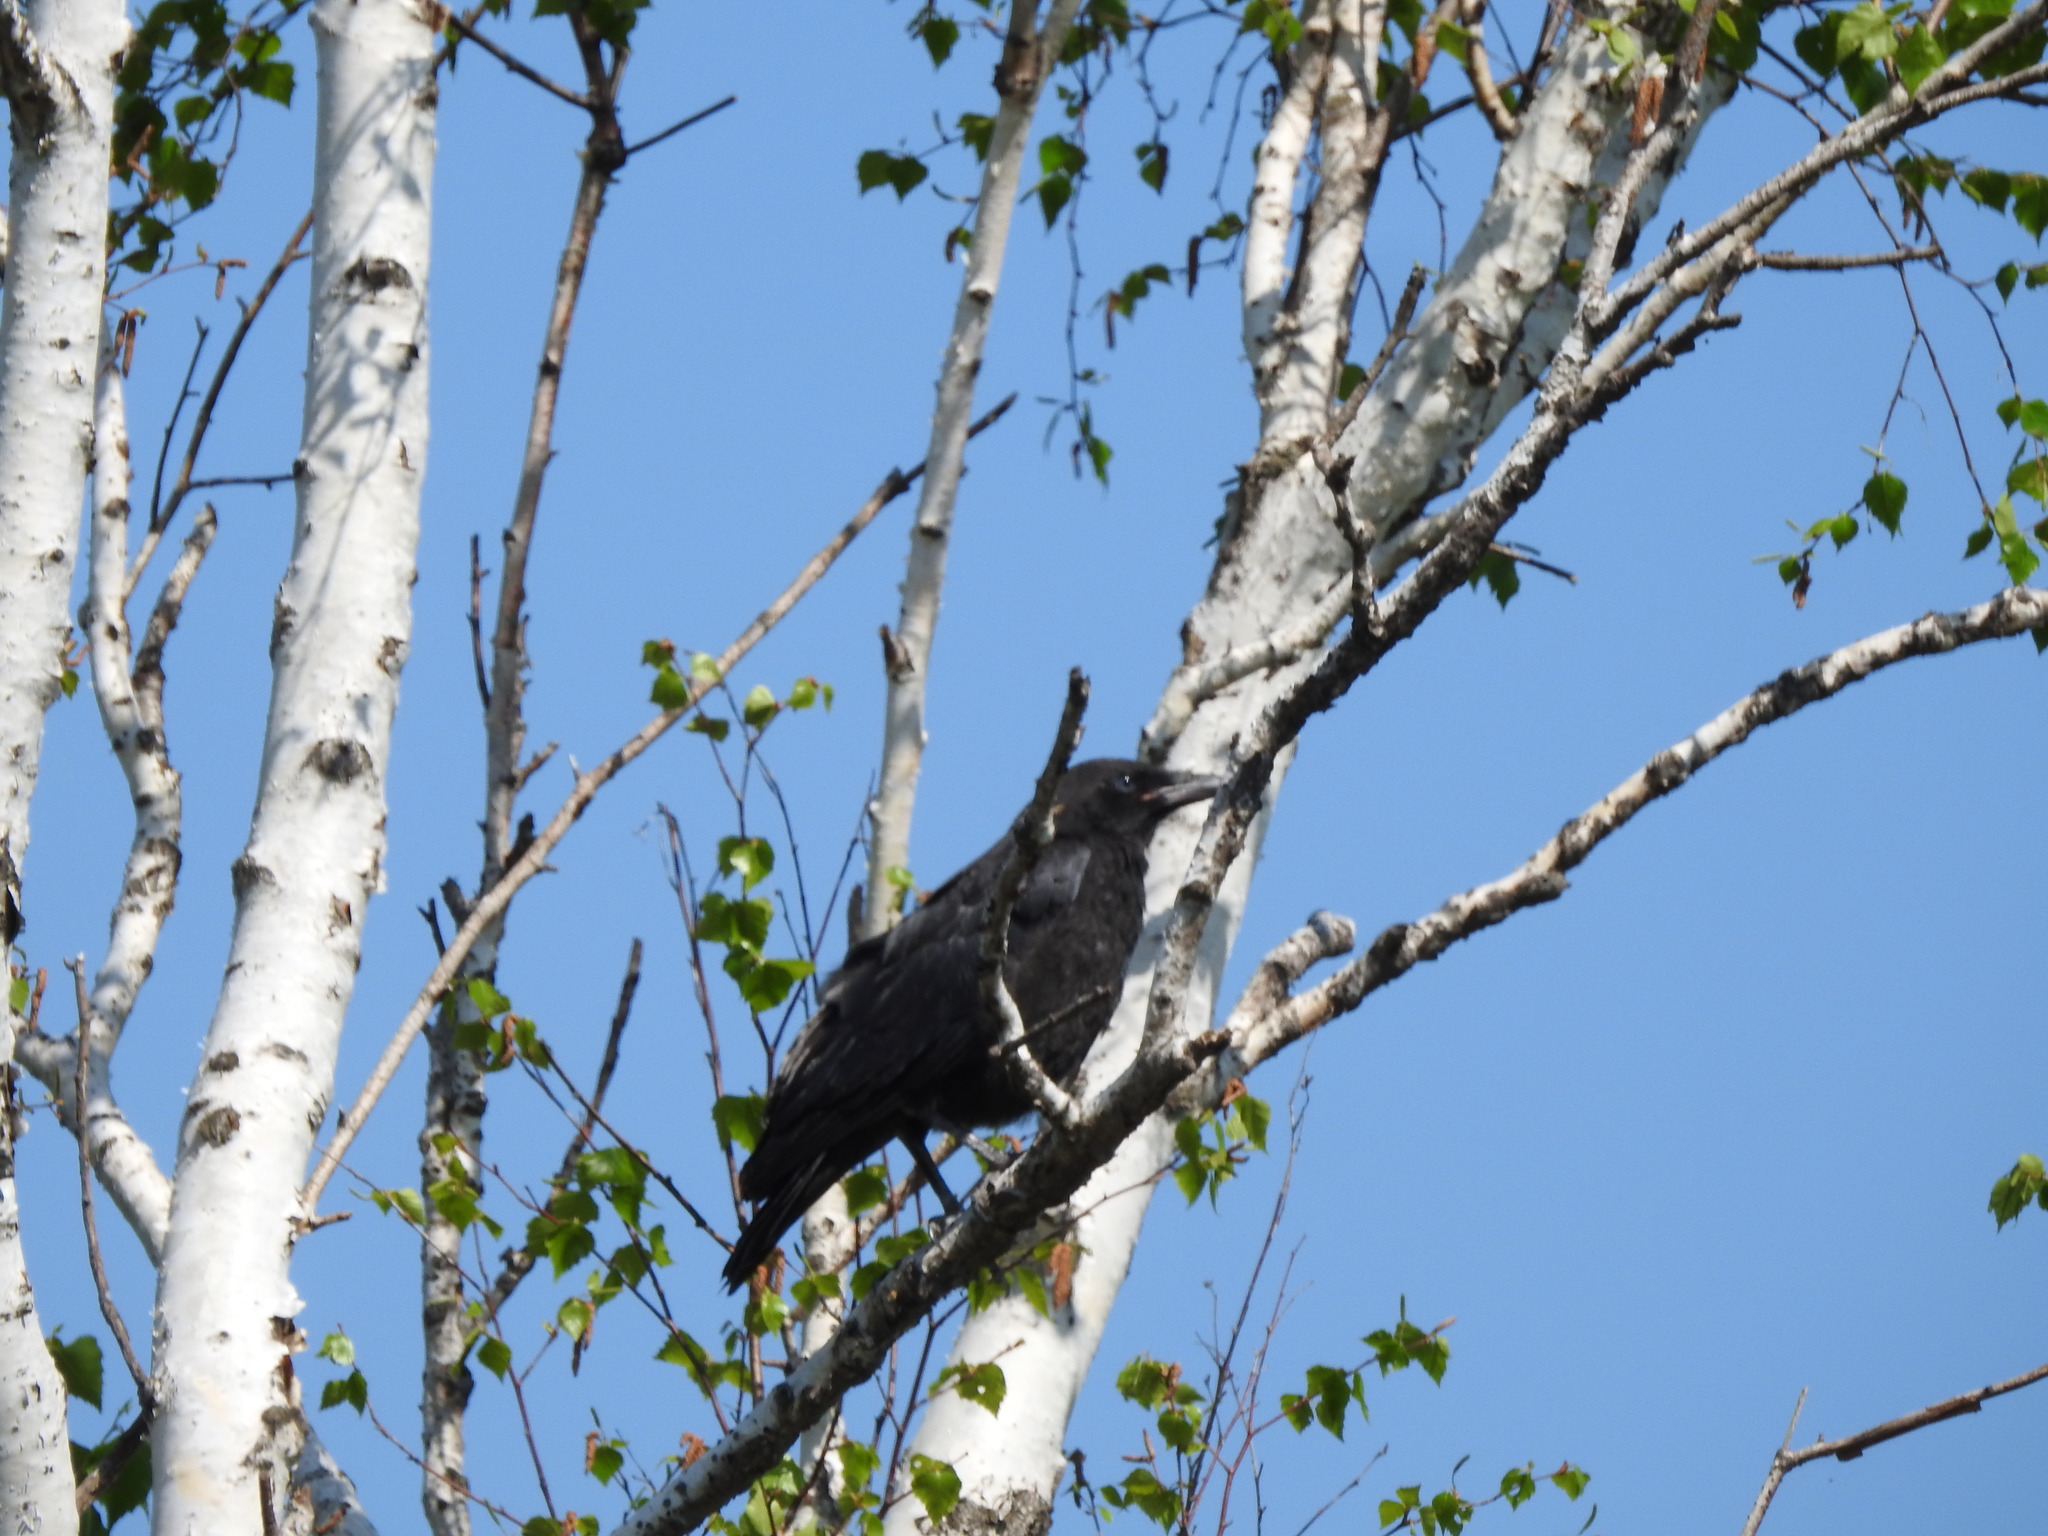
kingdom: Animalia
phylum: Chordata
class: Aves
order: Passeriformes
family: Corvidae
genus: Corvus
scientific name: Corvus corone
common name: Carrion crow
